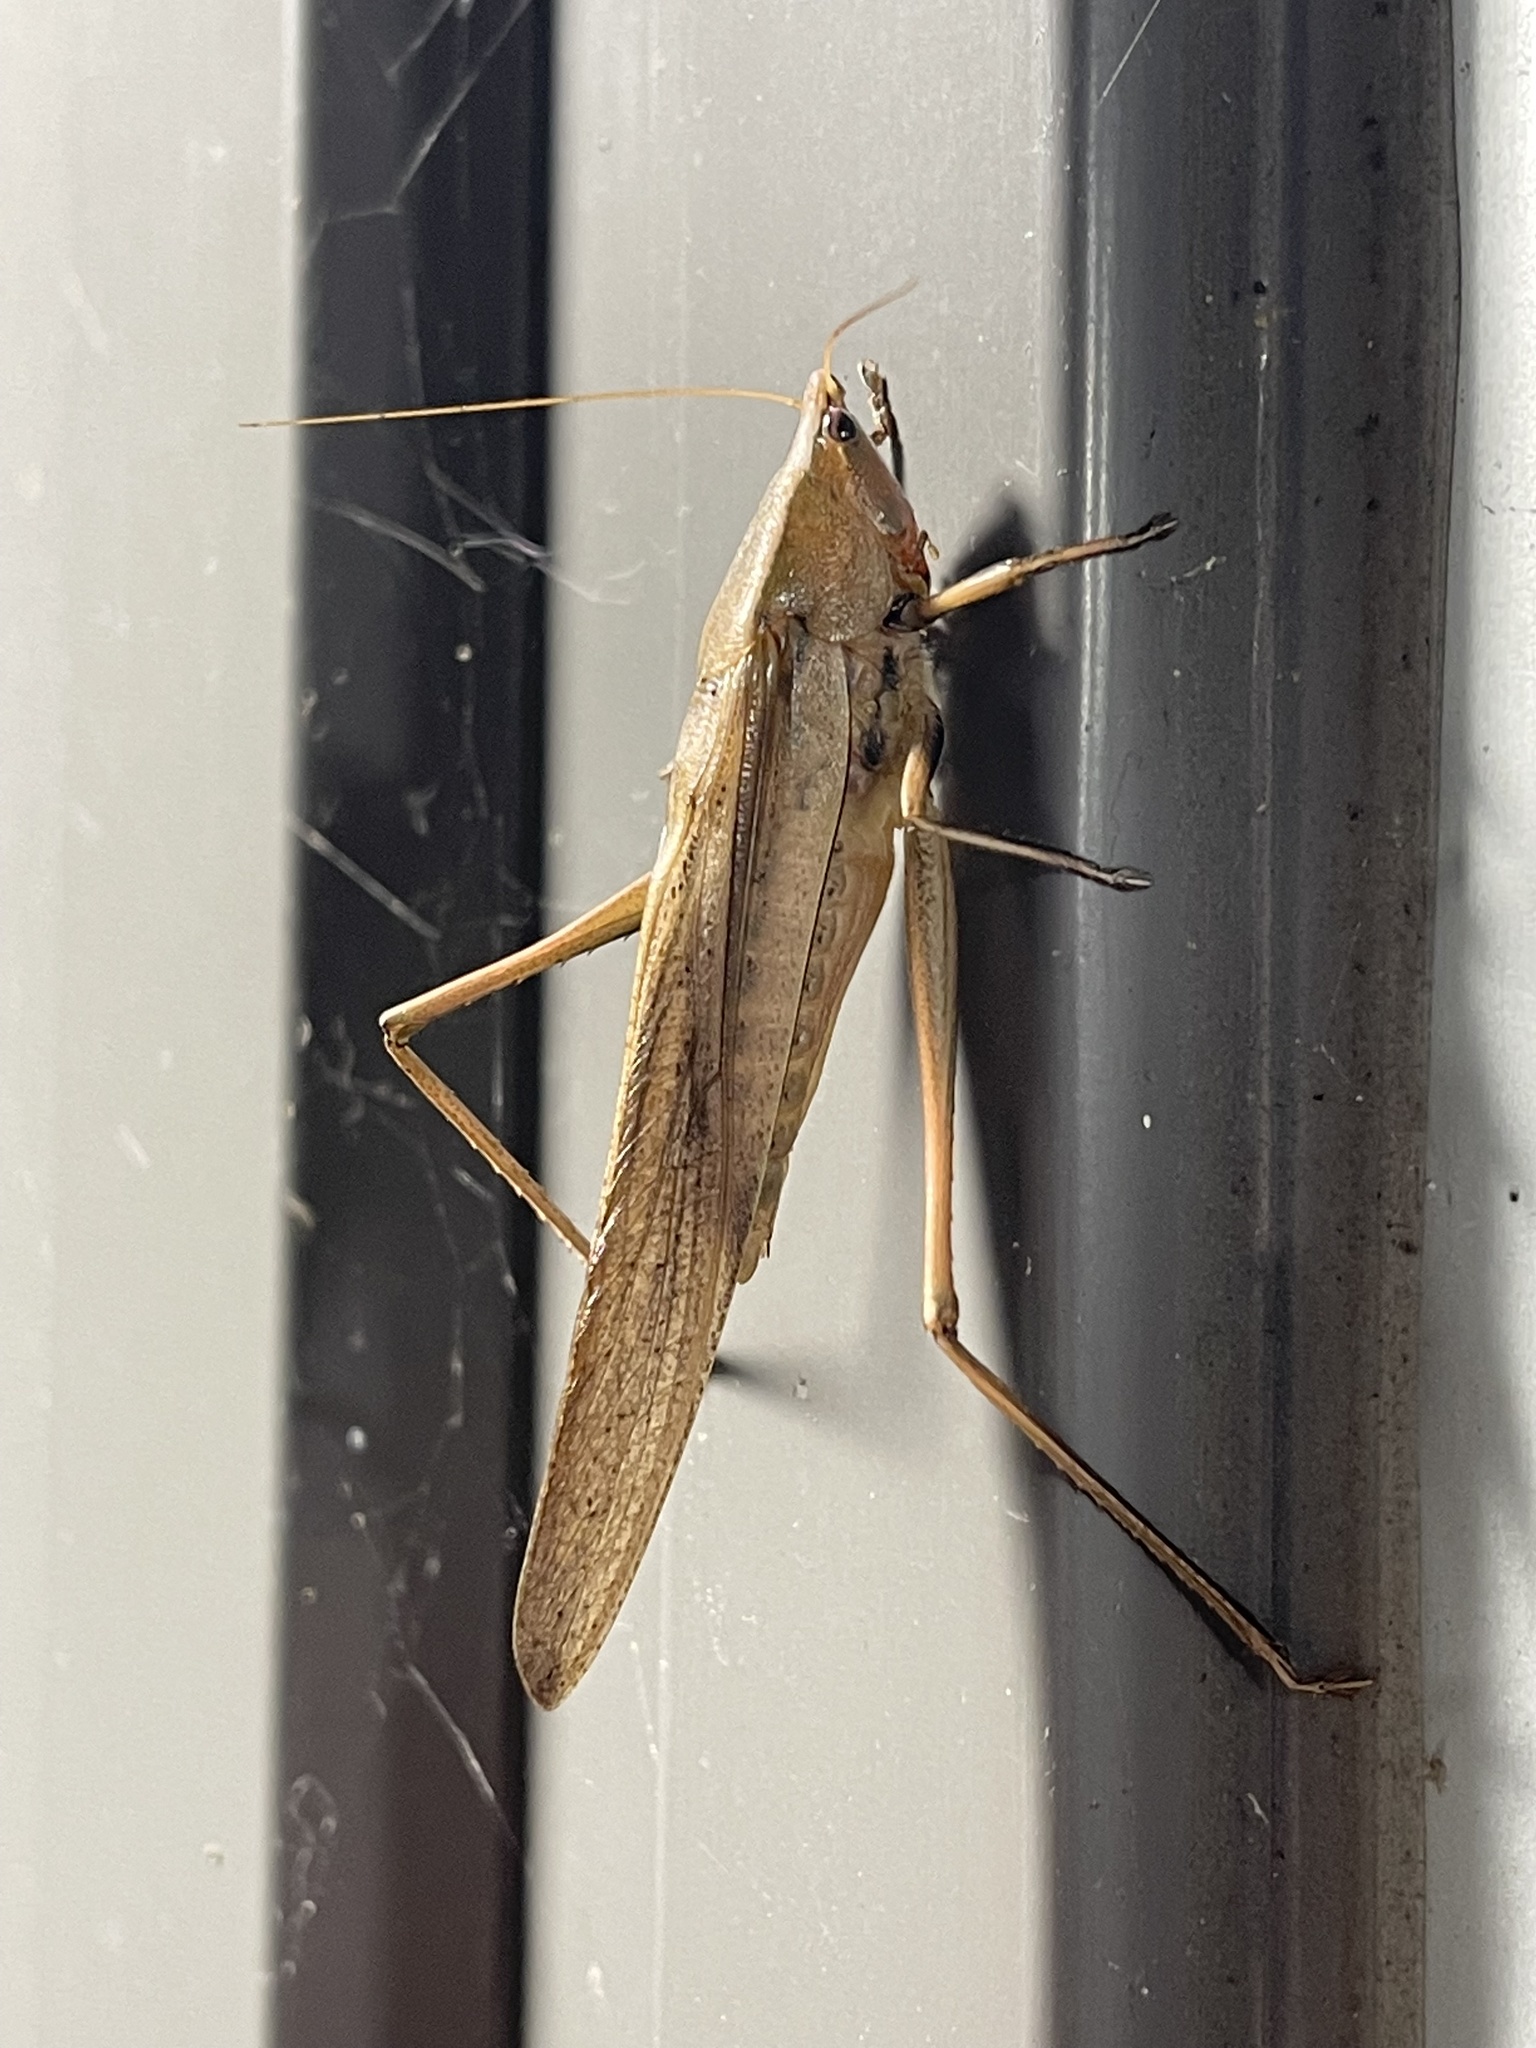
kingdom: Animalia
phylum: Arthropoda
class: Insecta
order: Orthoptera
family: Tettigoniidae
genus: Neoconocephalus
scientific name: Neoconocephalus triops
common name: Broad-tipped conehead
